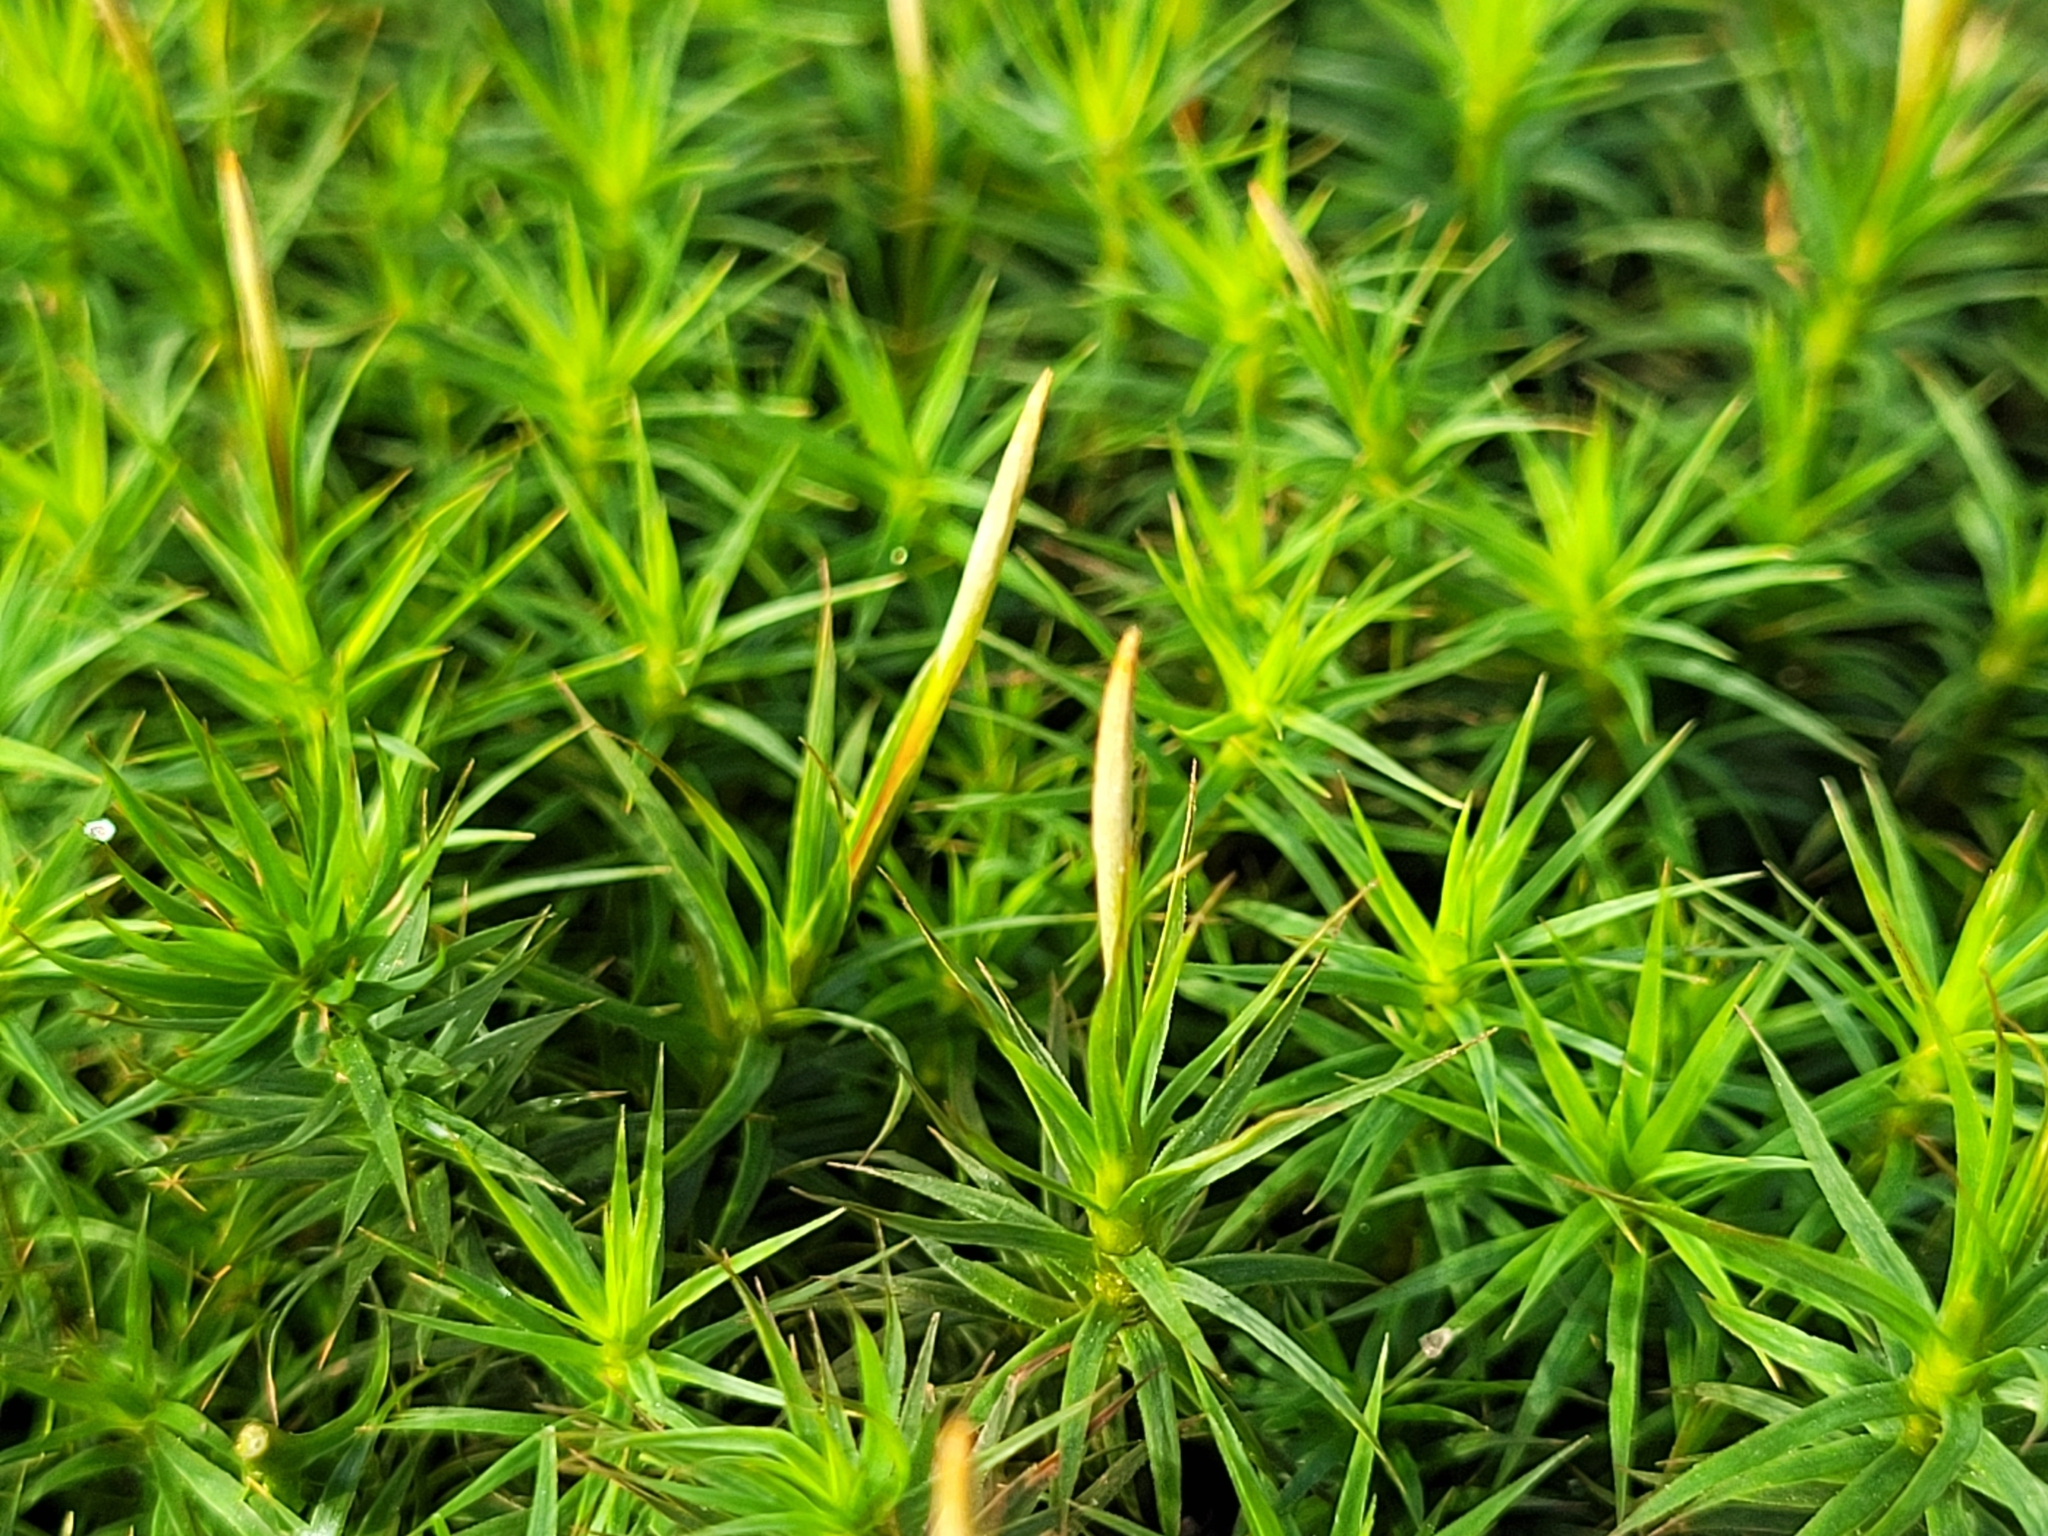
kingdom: Plantae
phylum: Bryophyta
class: Polytrichopsida
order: Polytrichales
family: Polytrichaceae
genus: Polytrichum
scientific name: Polytrichum formosum
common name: Bank haircap moss
